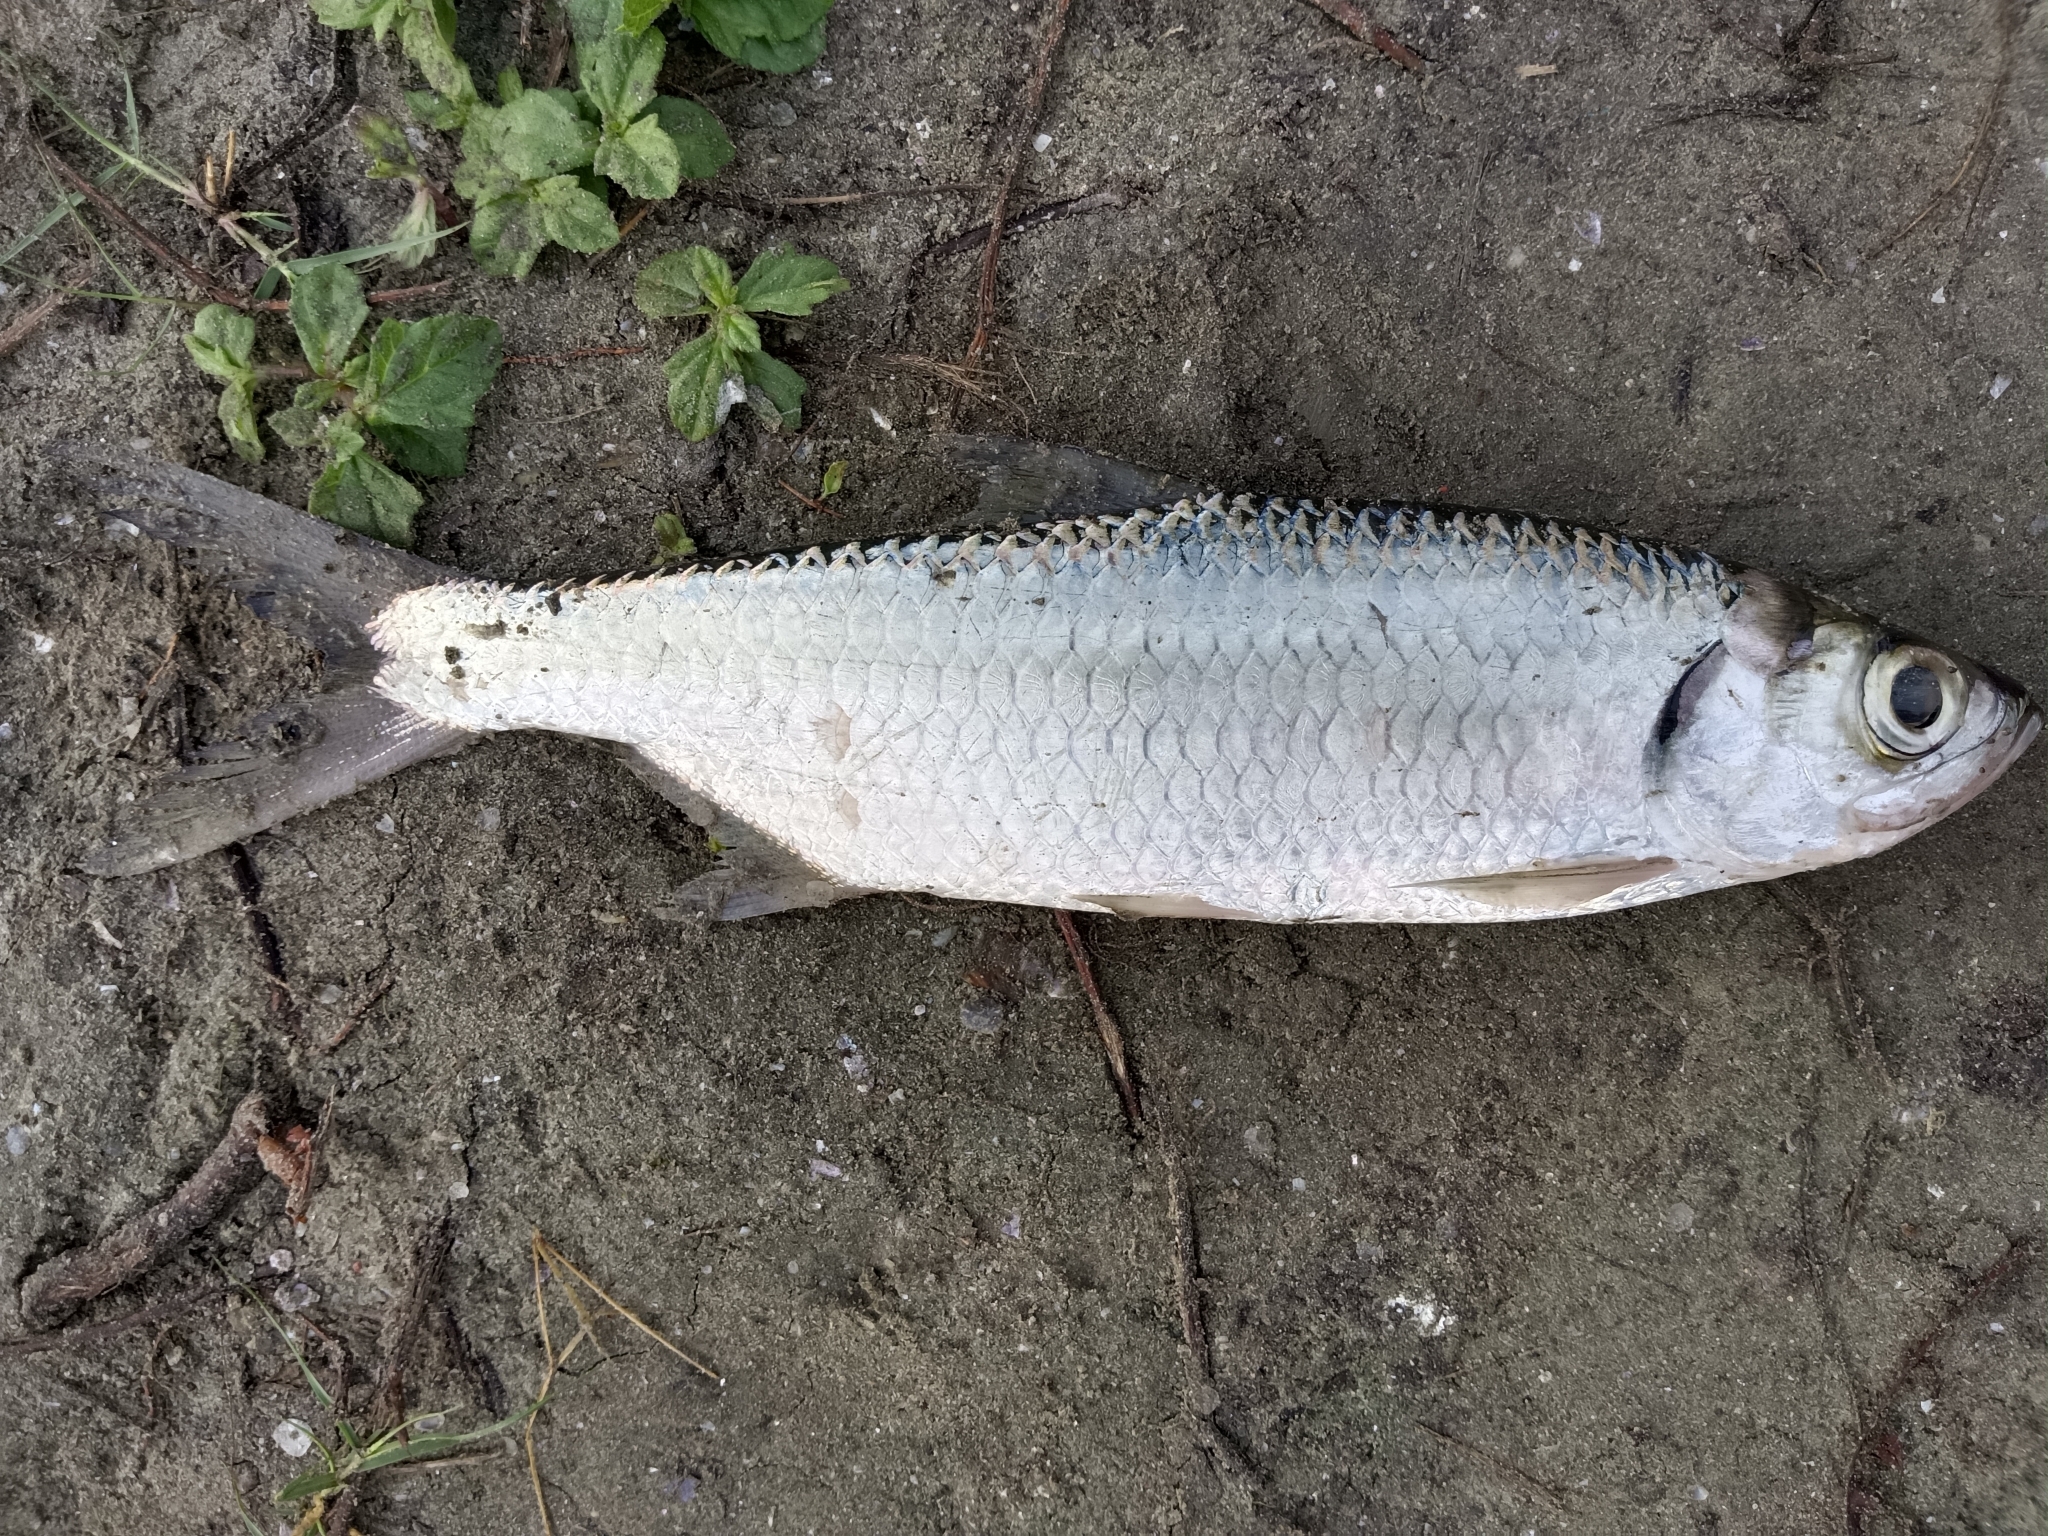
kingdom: Animalia
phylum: Chordata
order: Elopiformes
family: Megalopidae
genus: Megalops
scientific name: Megalops cyprinoides
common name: Indo-pacific tarpon
